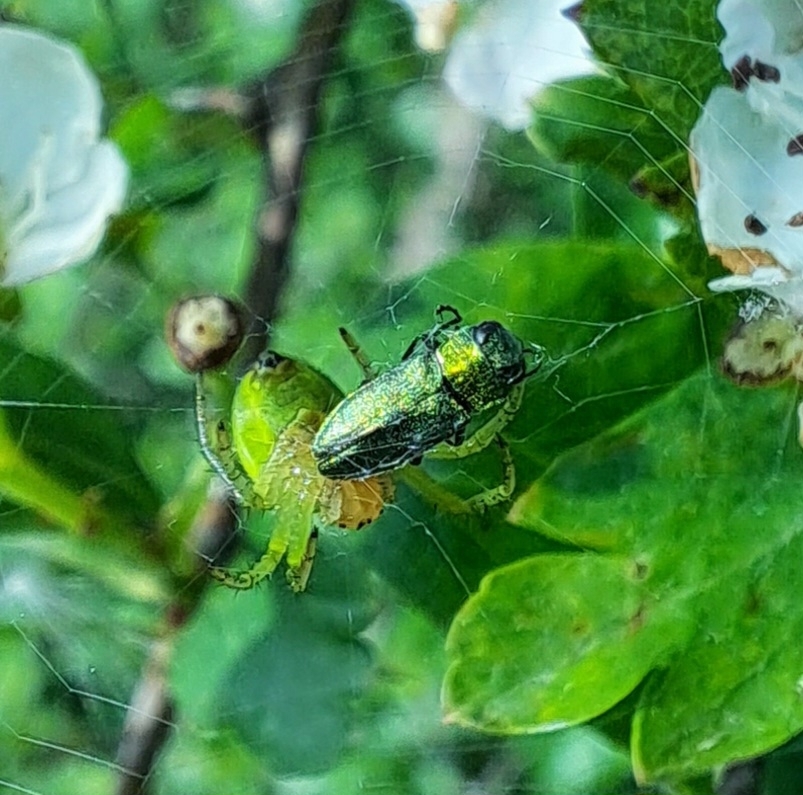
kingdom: Animalia
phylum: Arthropoda
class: Insecta
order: Coleoptera
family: Buprestidae
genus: Anthaxia
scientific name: Anthaxia nitidula
